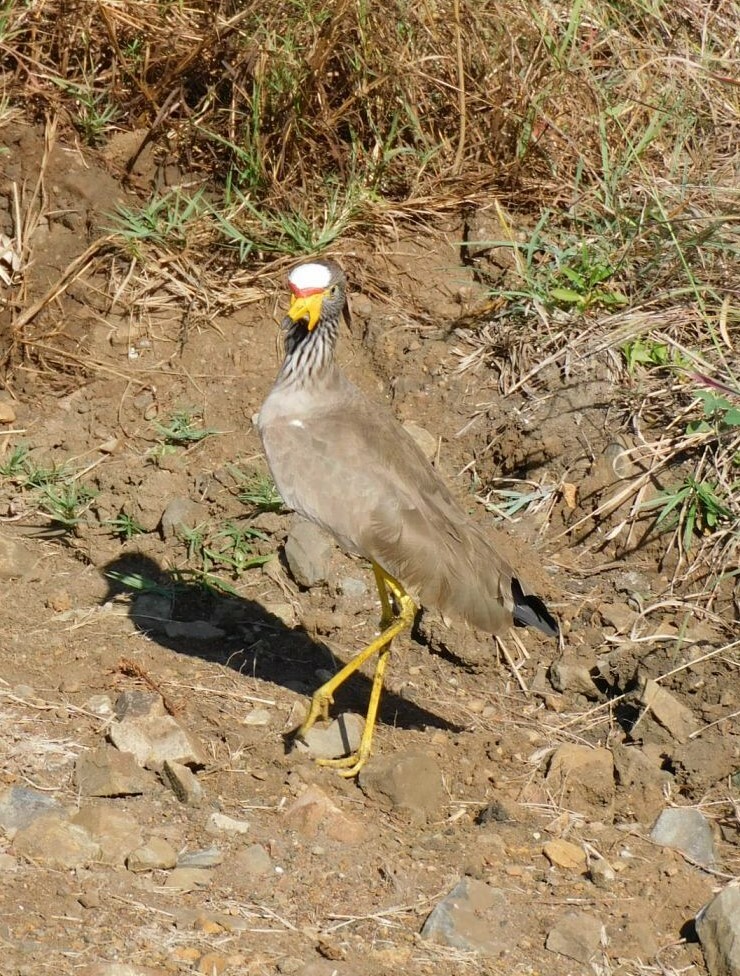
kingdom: Animalia
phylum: Chordata
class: Aves
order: Charadriiformes
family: Charadriidae
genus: Vanellus
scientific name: Vanellus senegallus
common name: African wattled lapwing
